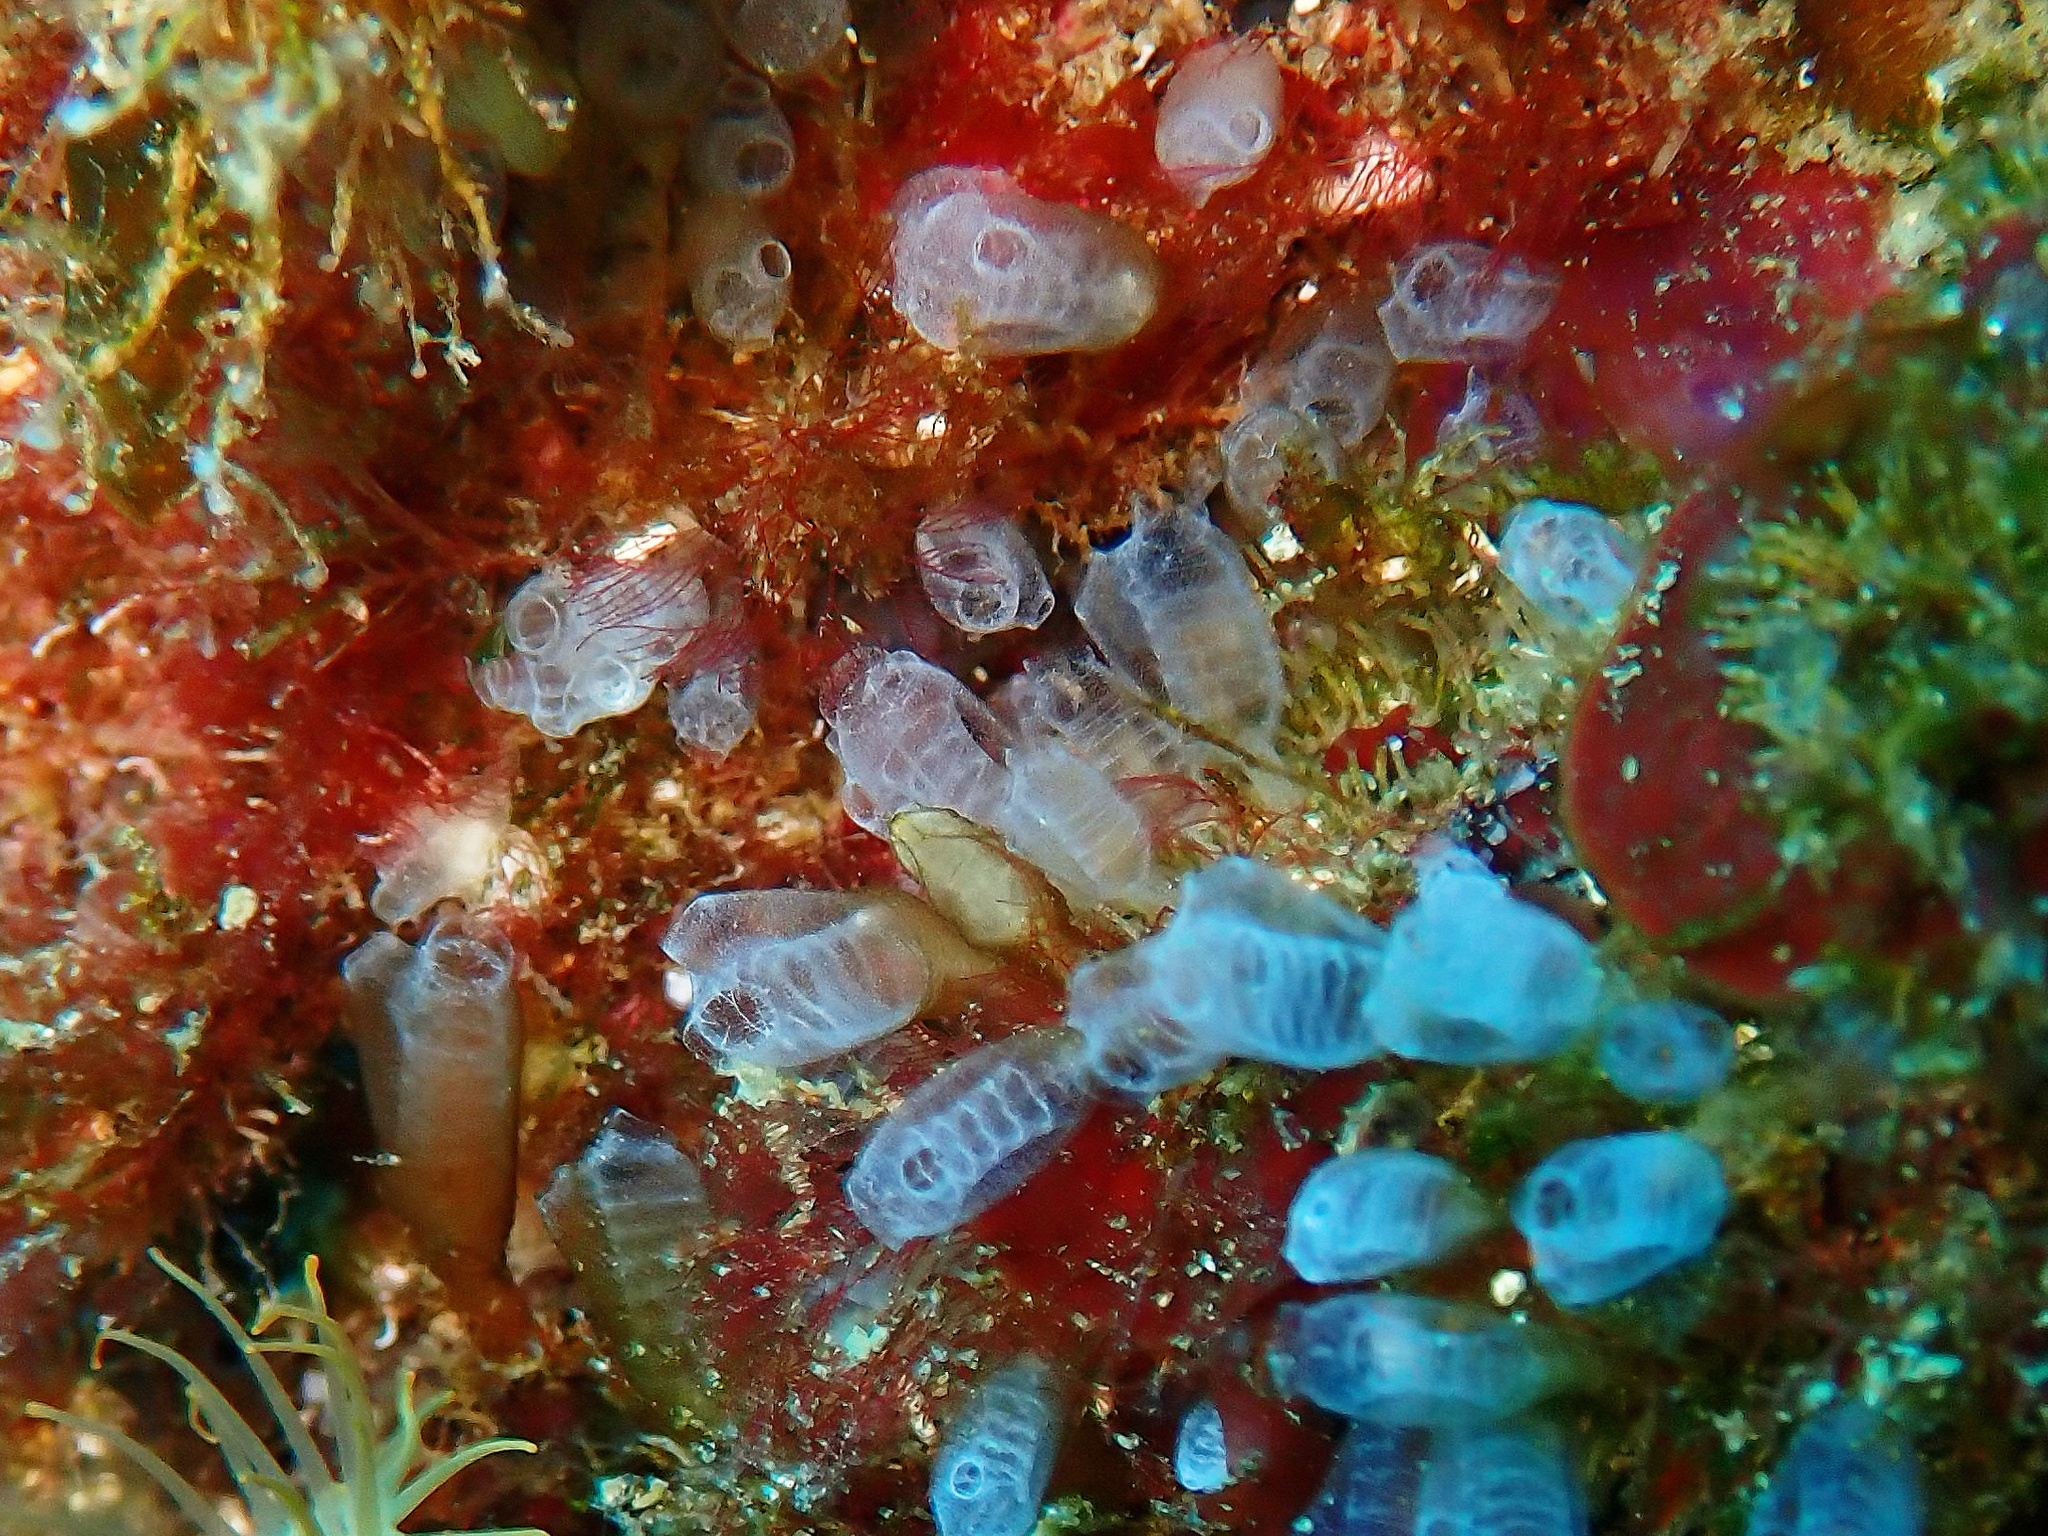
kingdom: Animalia
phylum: Chordata
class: Ascidiacea
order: Aplousobranchia
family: Clavelinidae
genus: Pycnoclavella
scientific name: Pycnoclavella atlantica
